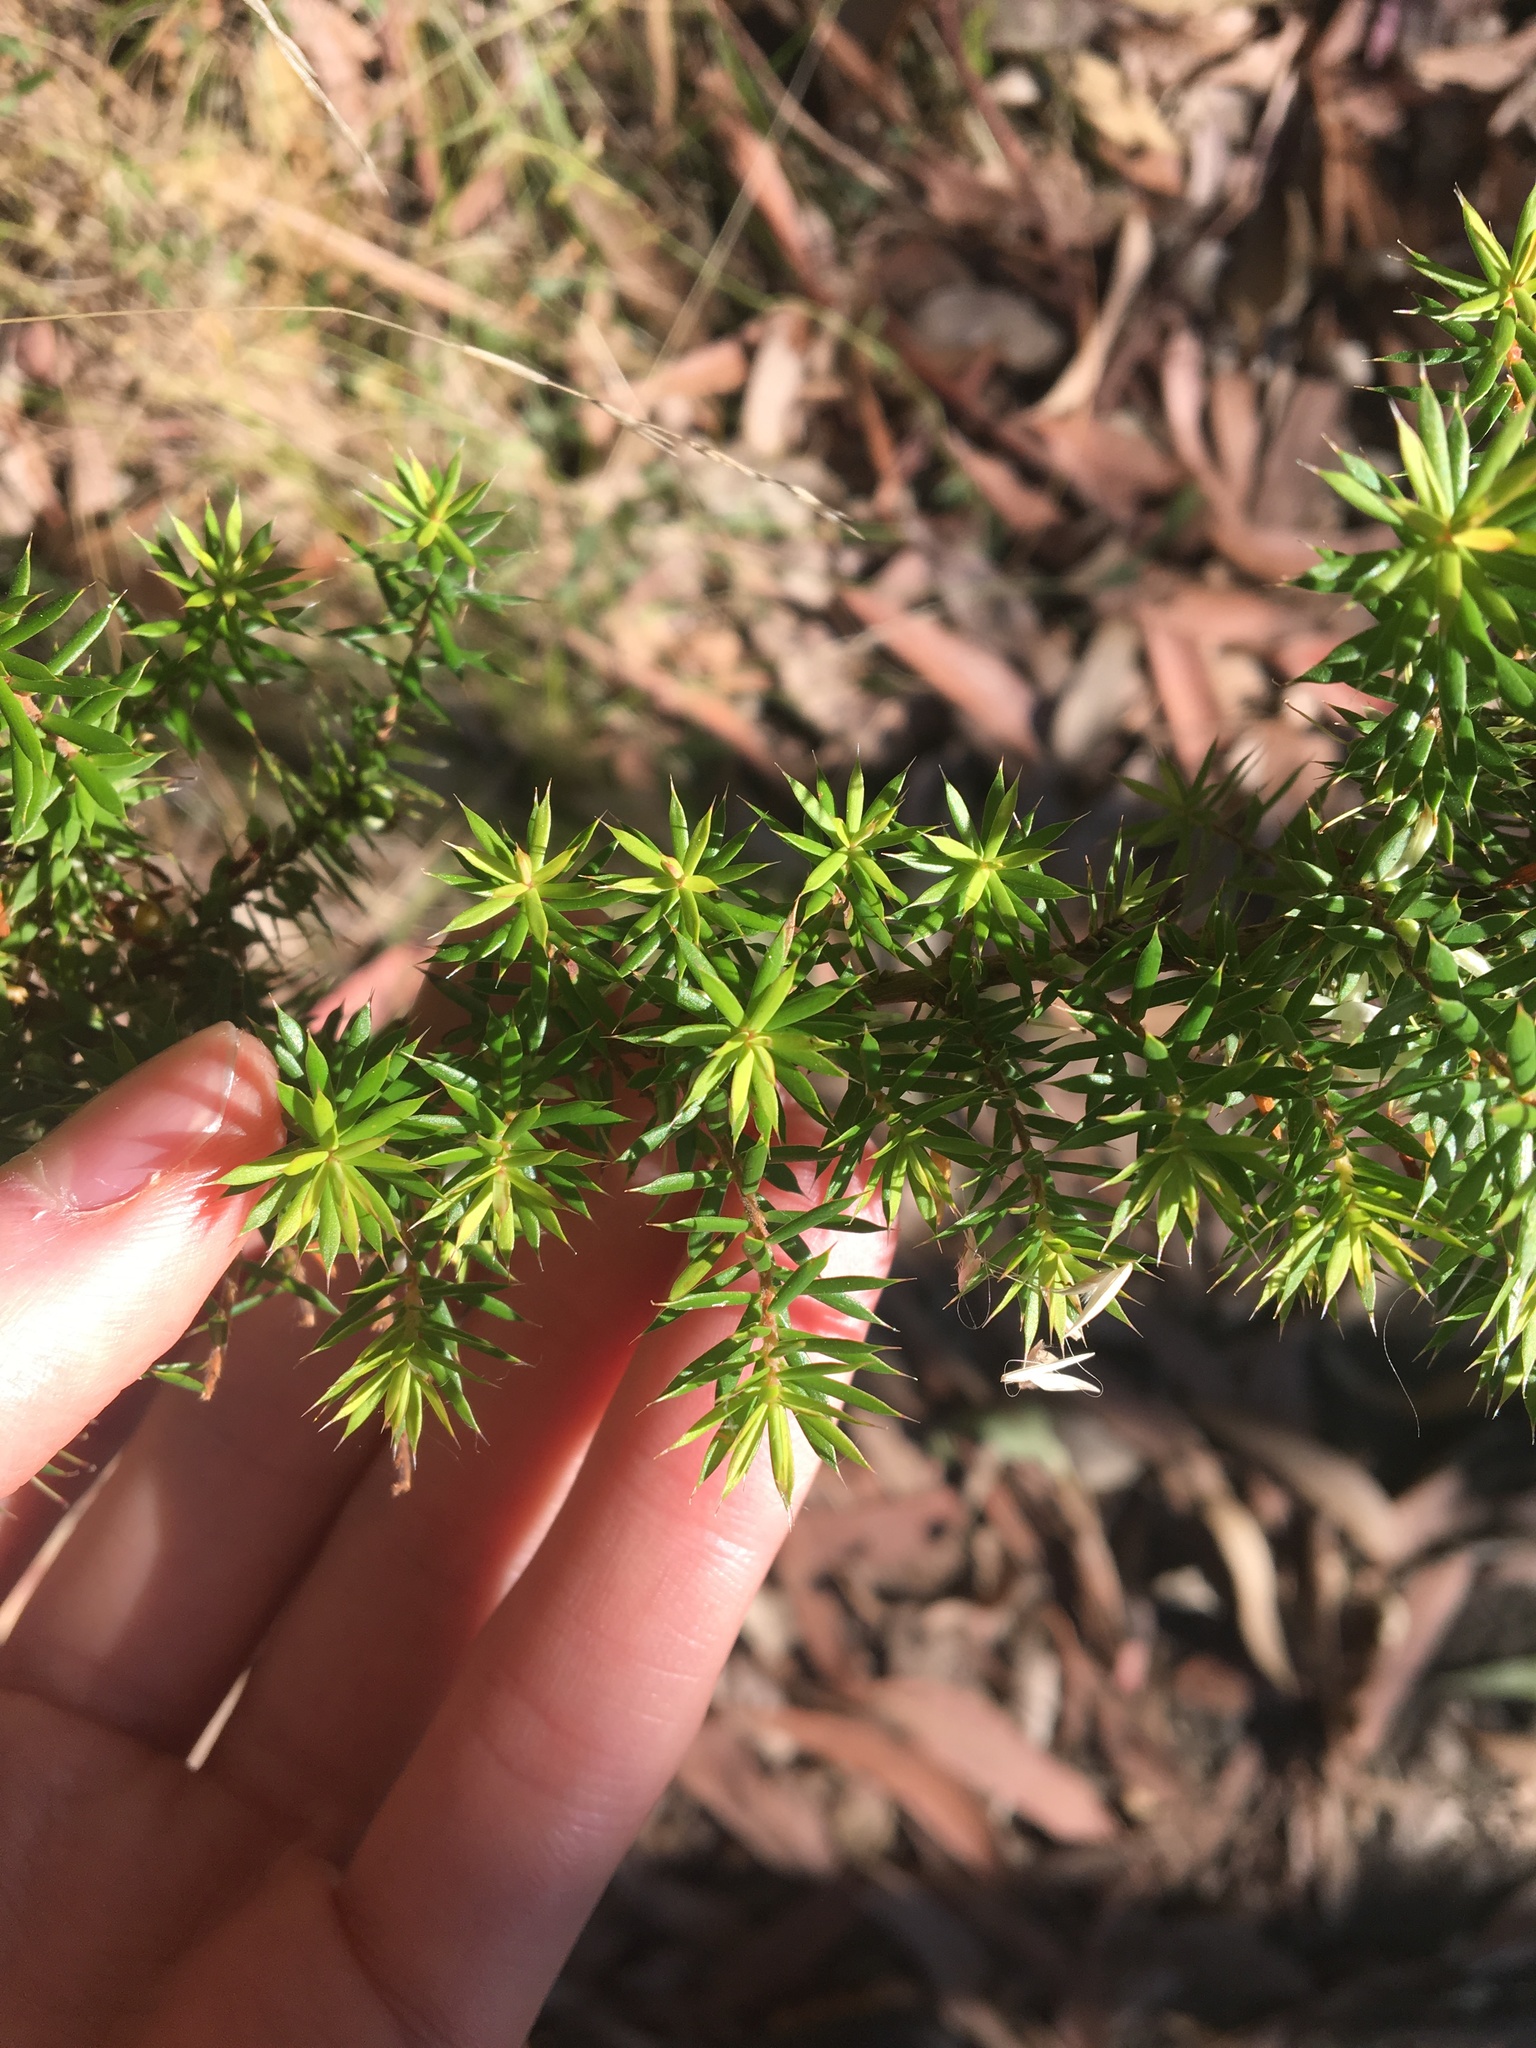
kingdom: Plantae
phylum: Tracheophyta
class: Magnoliopsida
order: Ericales
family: Ericaceae
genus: Styphelia
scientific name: Styphelia sieberi
